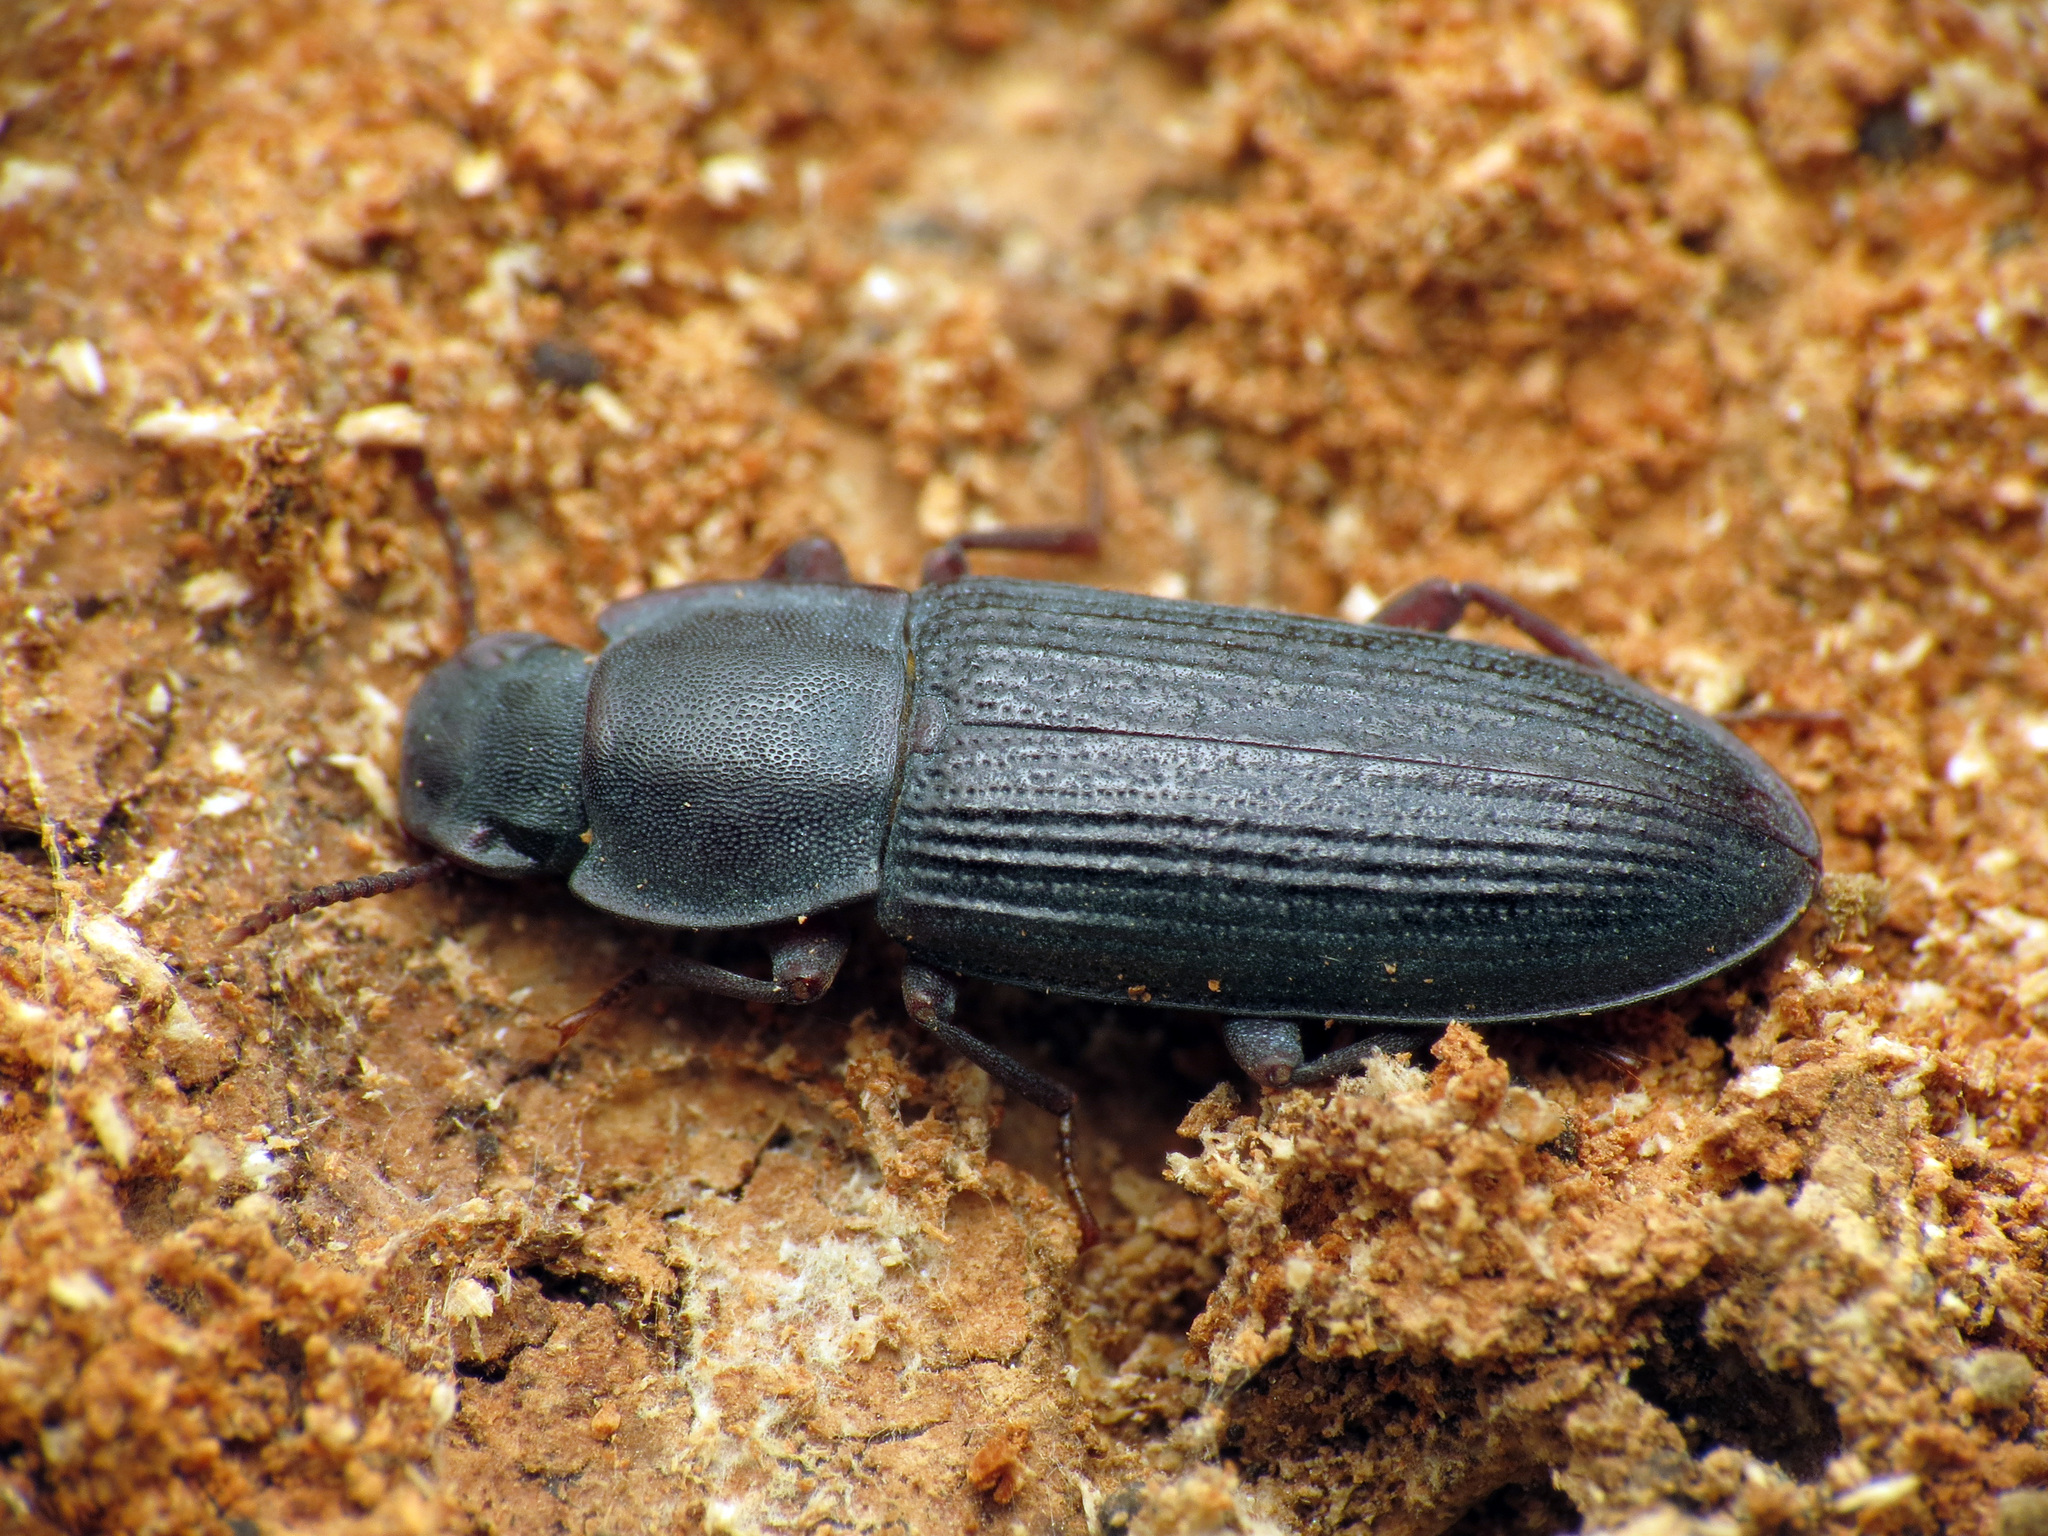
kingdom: Animalia
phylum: Arthropoda
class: Insecta
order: Coleoptera
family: Tenebrionidae
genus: Idiobates
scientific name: Idiobates castaneus
